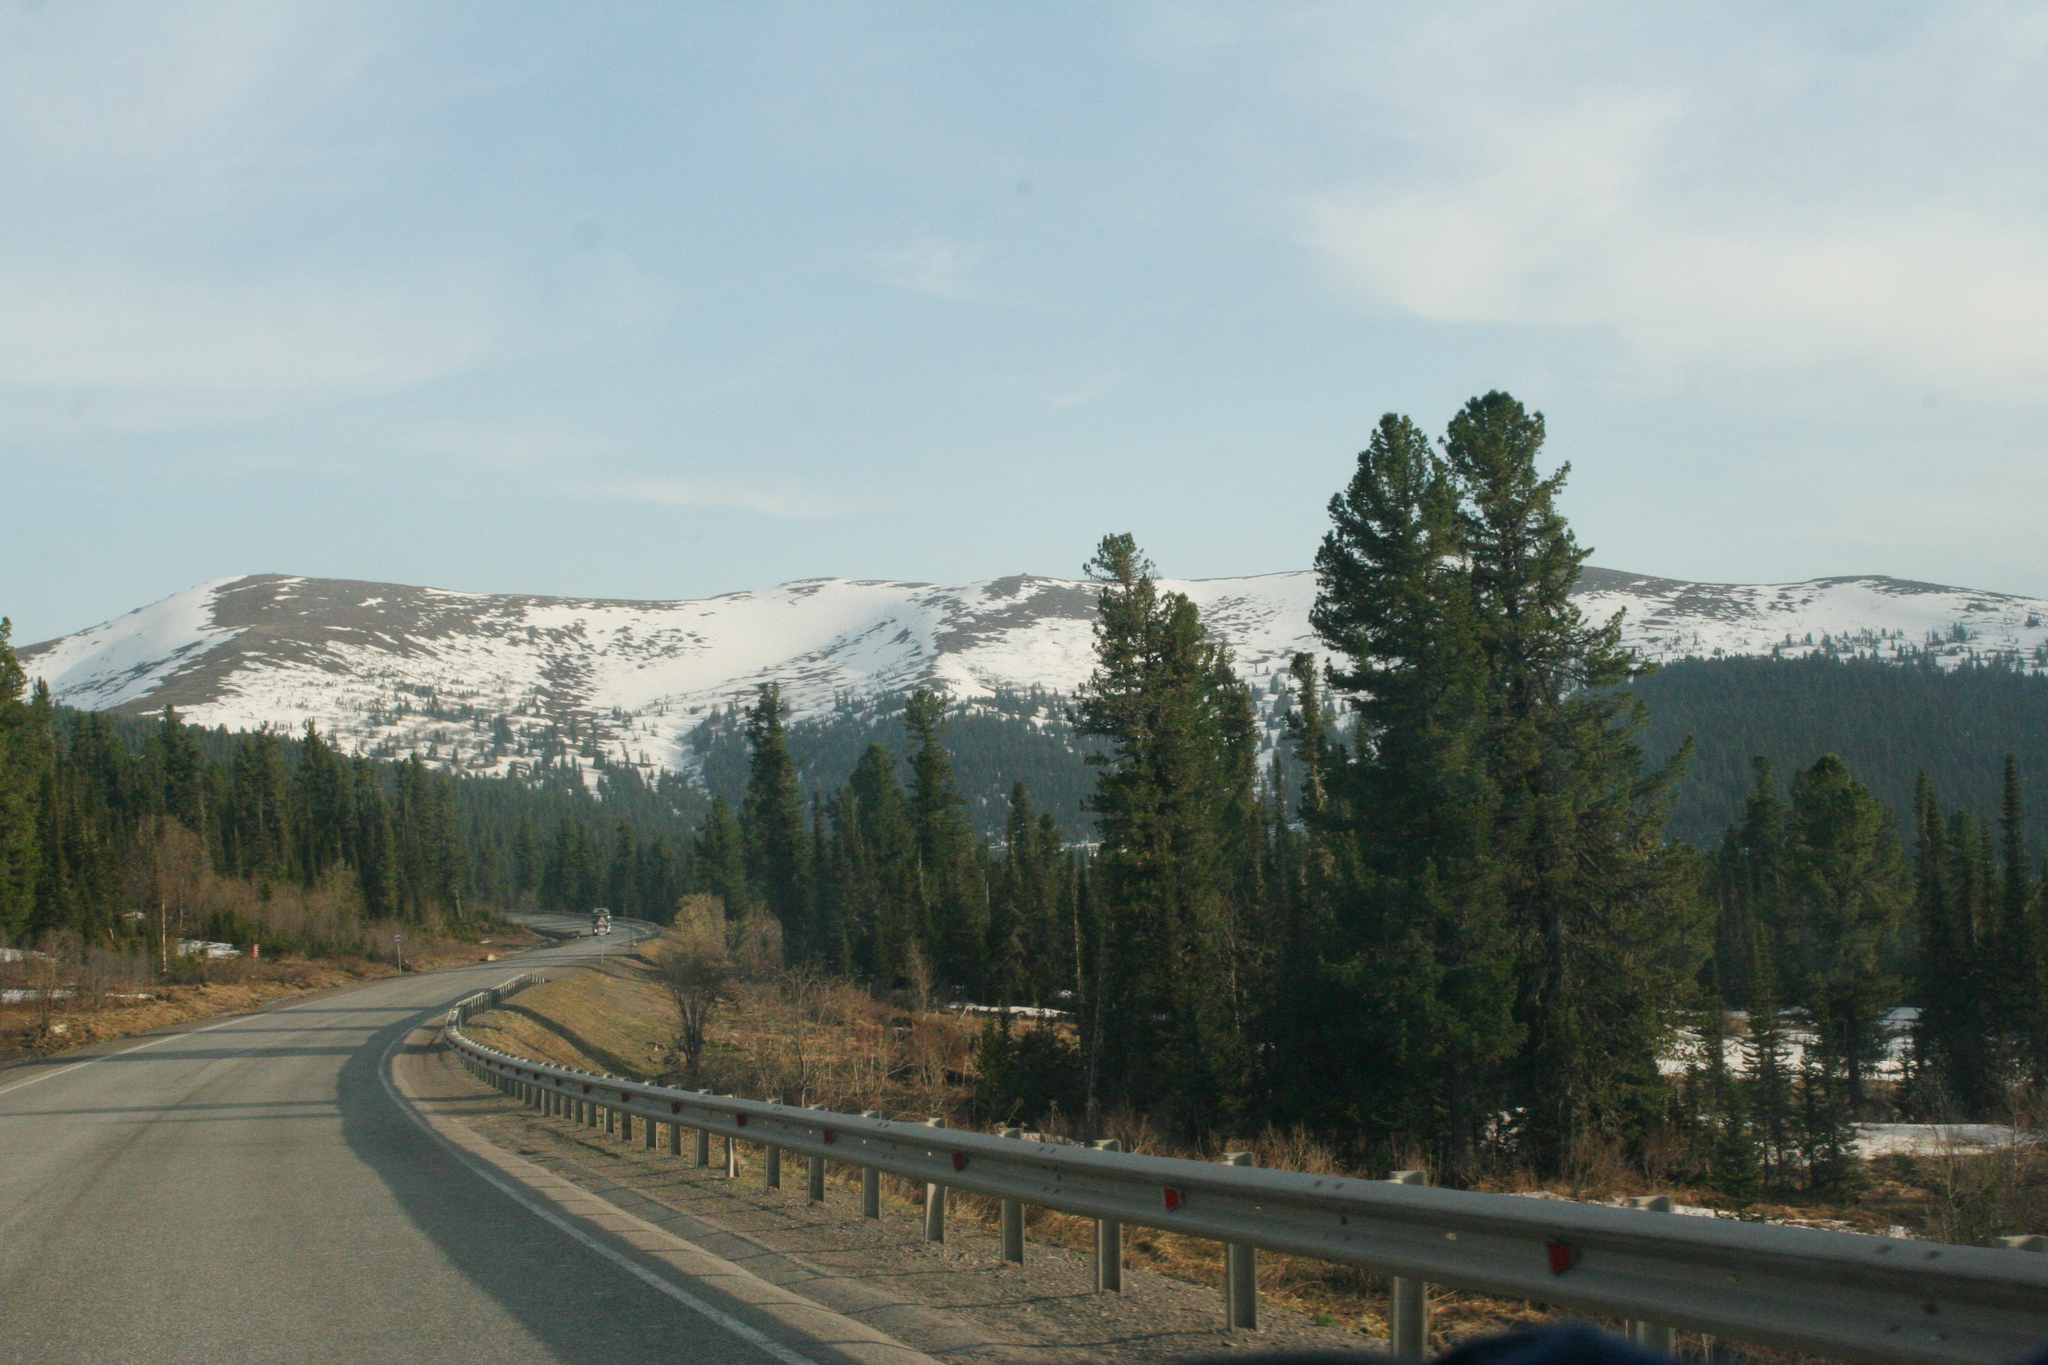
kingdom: Plantae
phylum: Tracheophyta
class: Pinopsida
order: Pinales
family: Pinaceae
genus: Pinus
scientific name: Pinus sibirica
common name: Siberian pine
